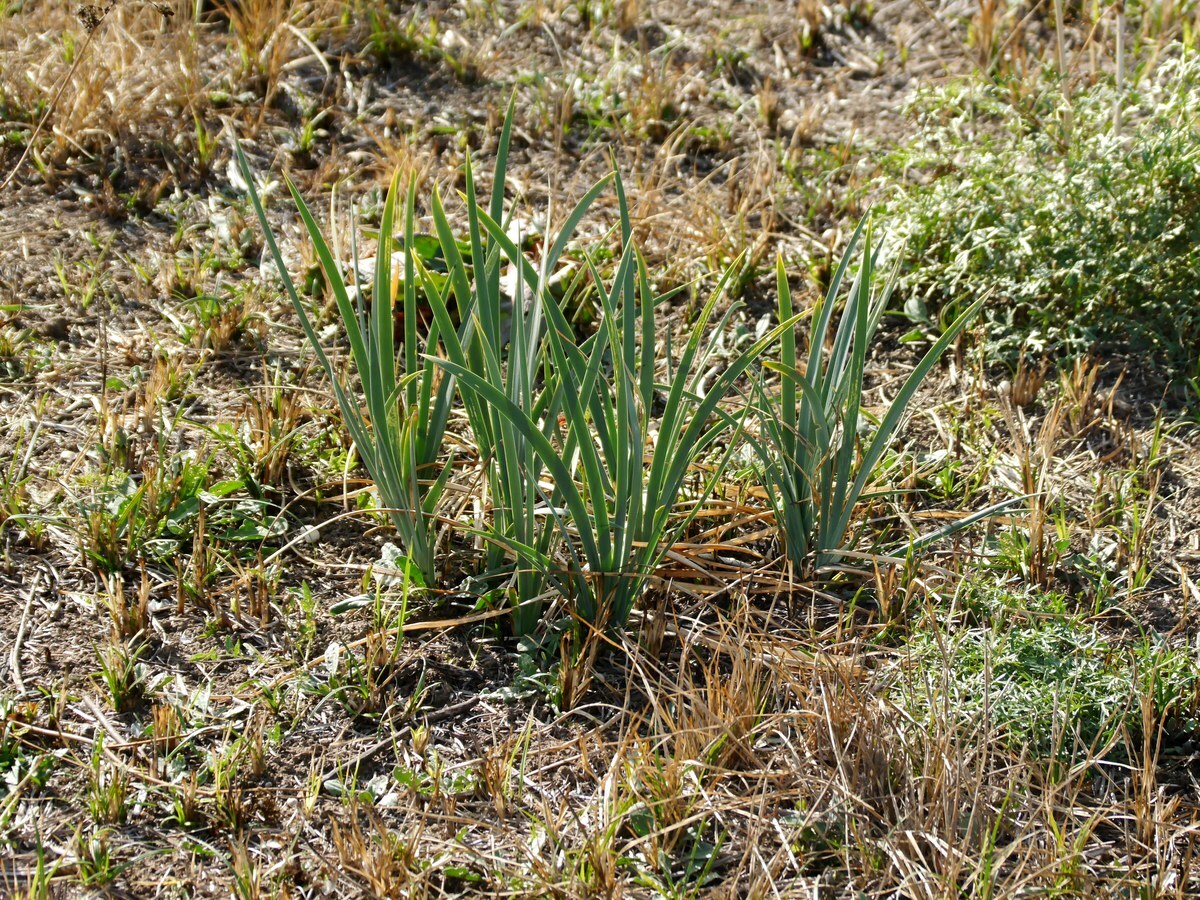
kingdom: Plantae
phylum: Tracheophyta
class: Liliopsida
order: Asparagales
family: Iridaceae
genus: Iris
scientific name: Iris halophila
